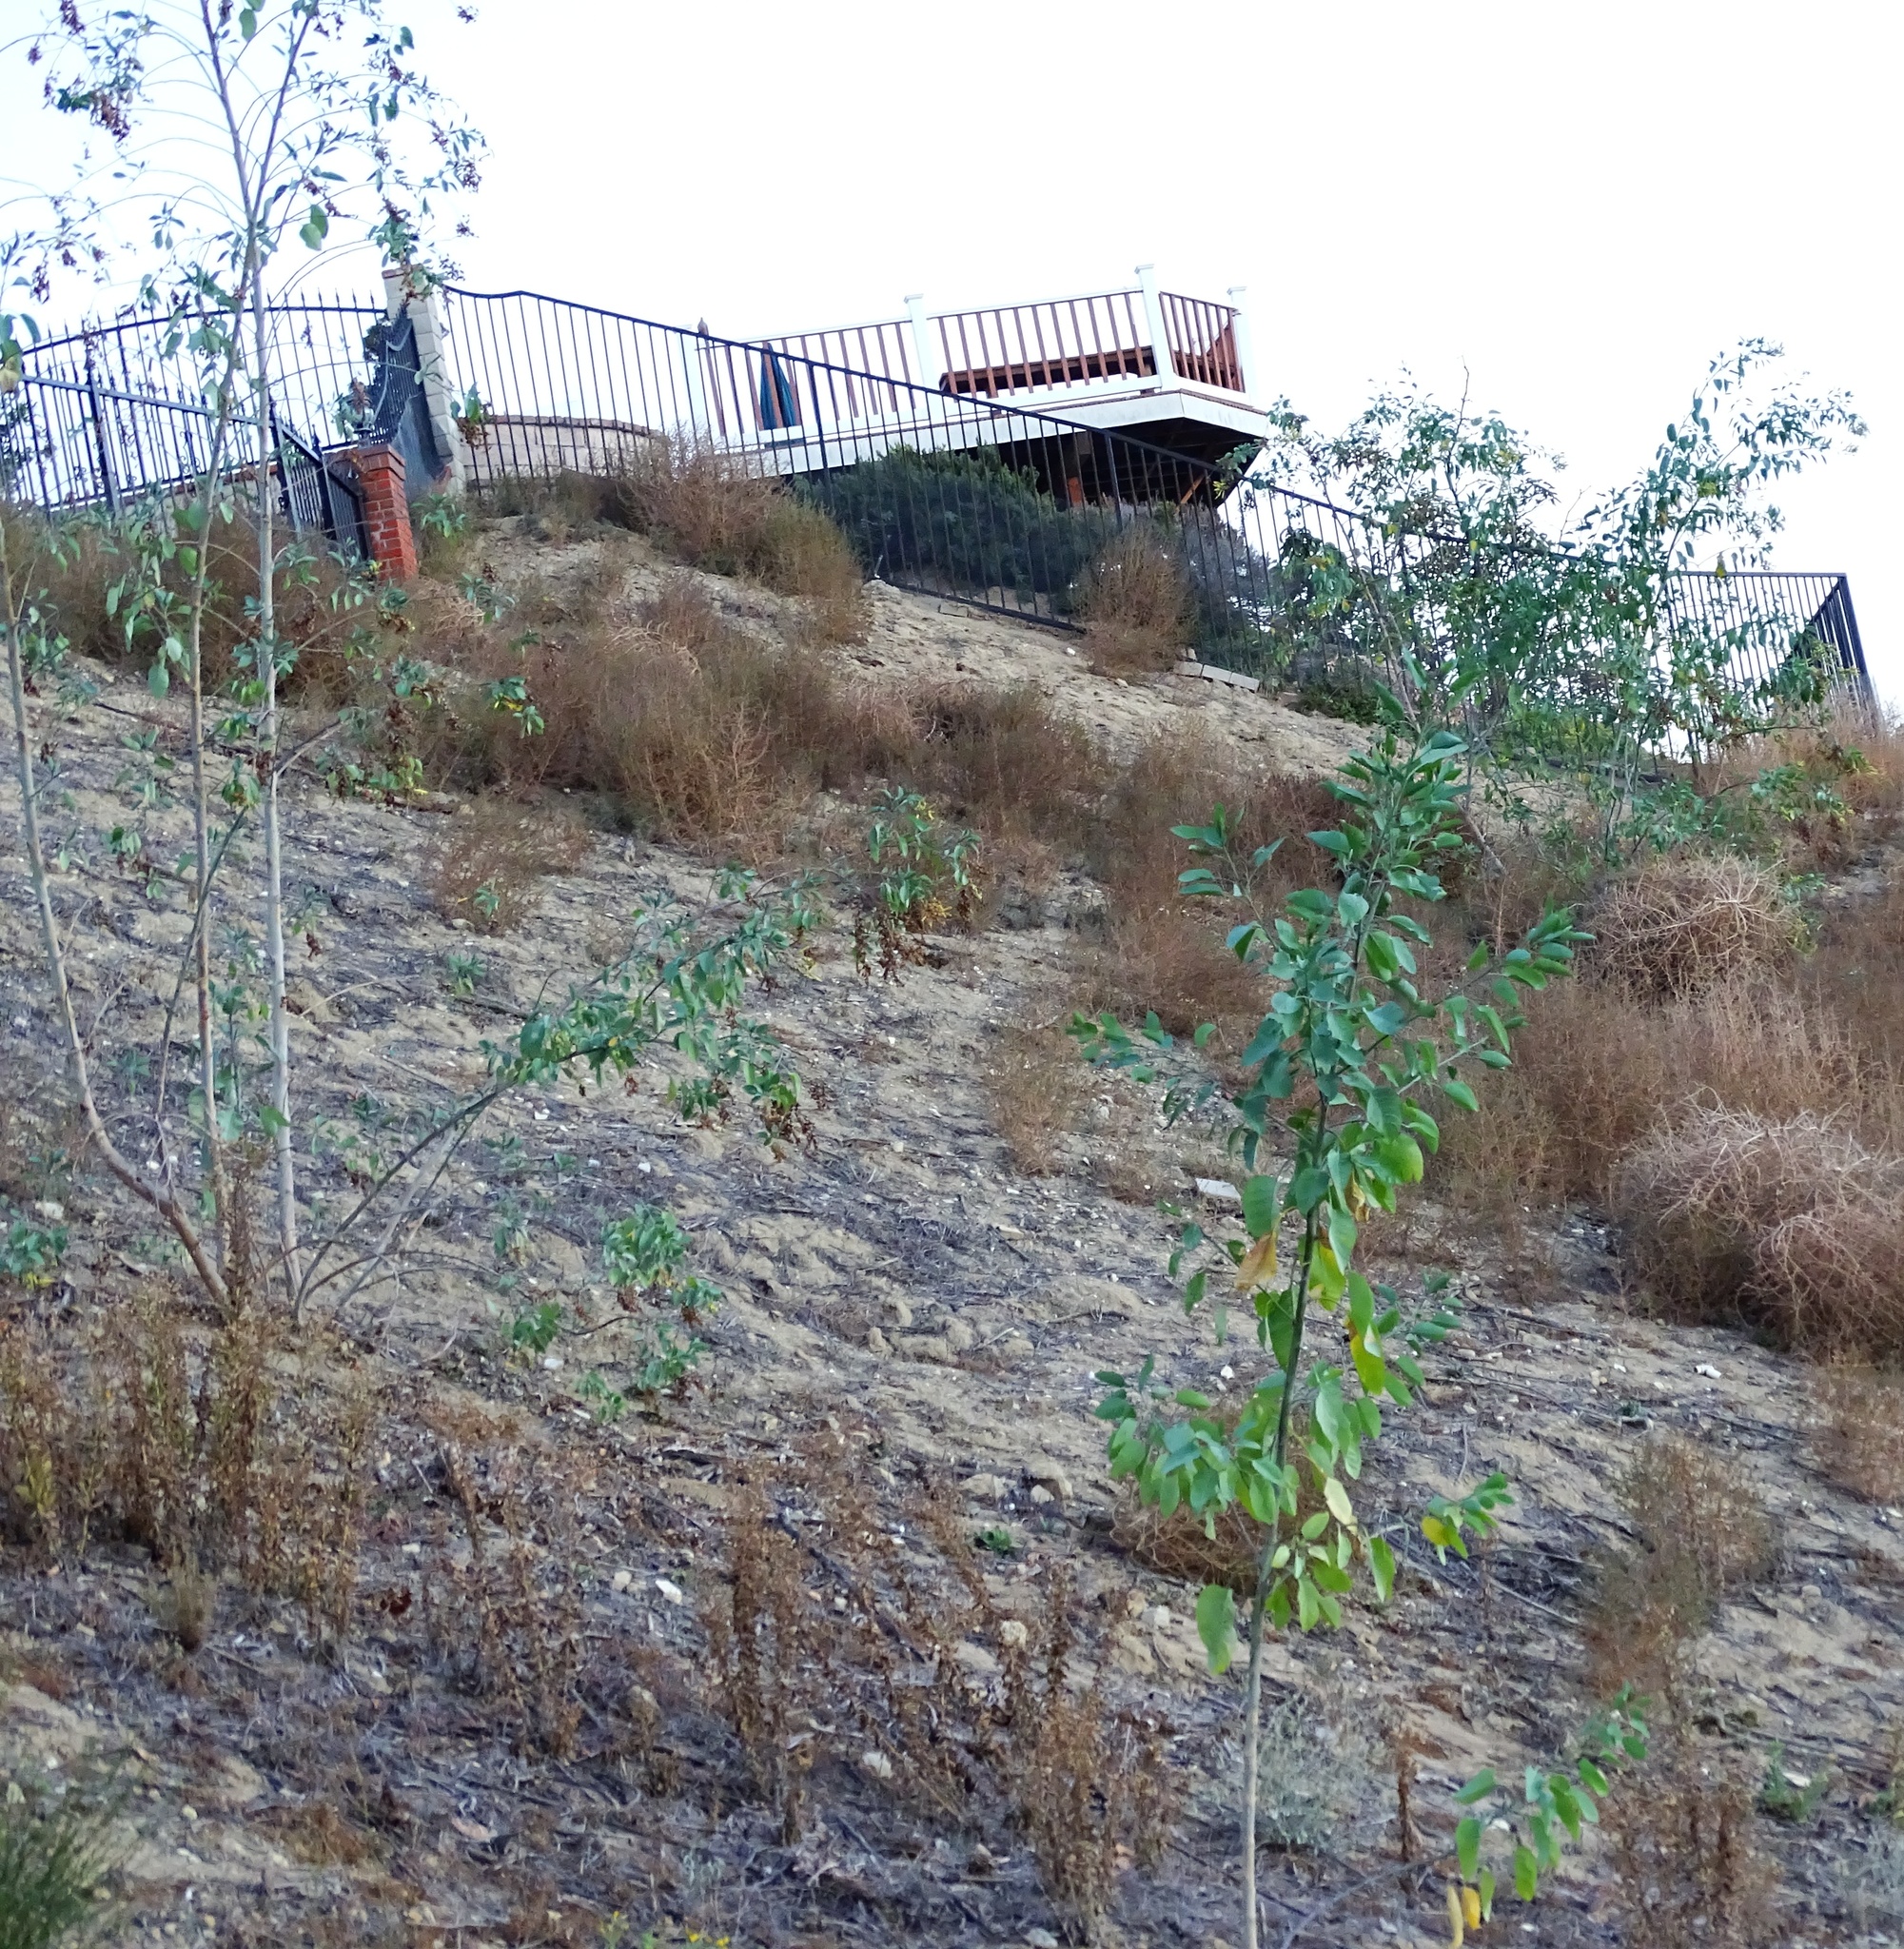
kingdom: Plantae
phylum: Tracheophyta
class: Magnoliopsida
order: Solanales
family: Solanaceae
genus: Nicotiana
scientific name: Nicotiana glauca
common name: Tree tobacco
